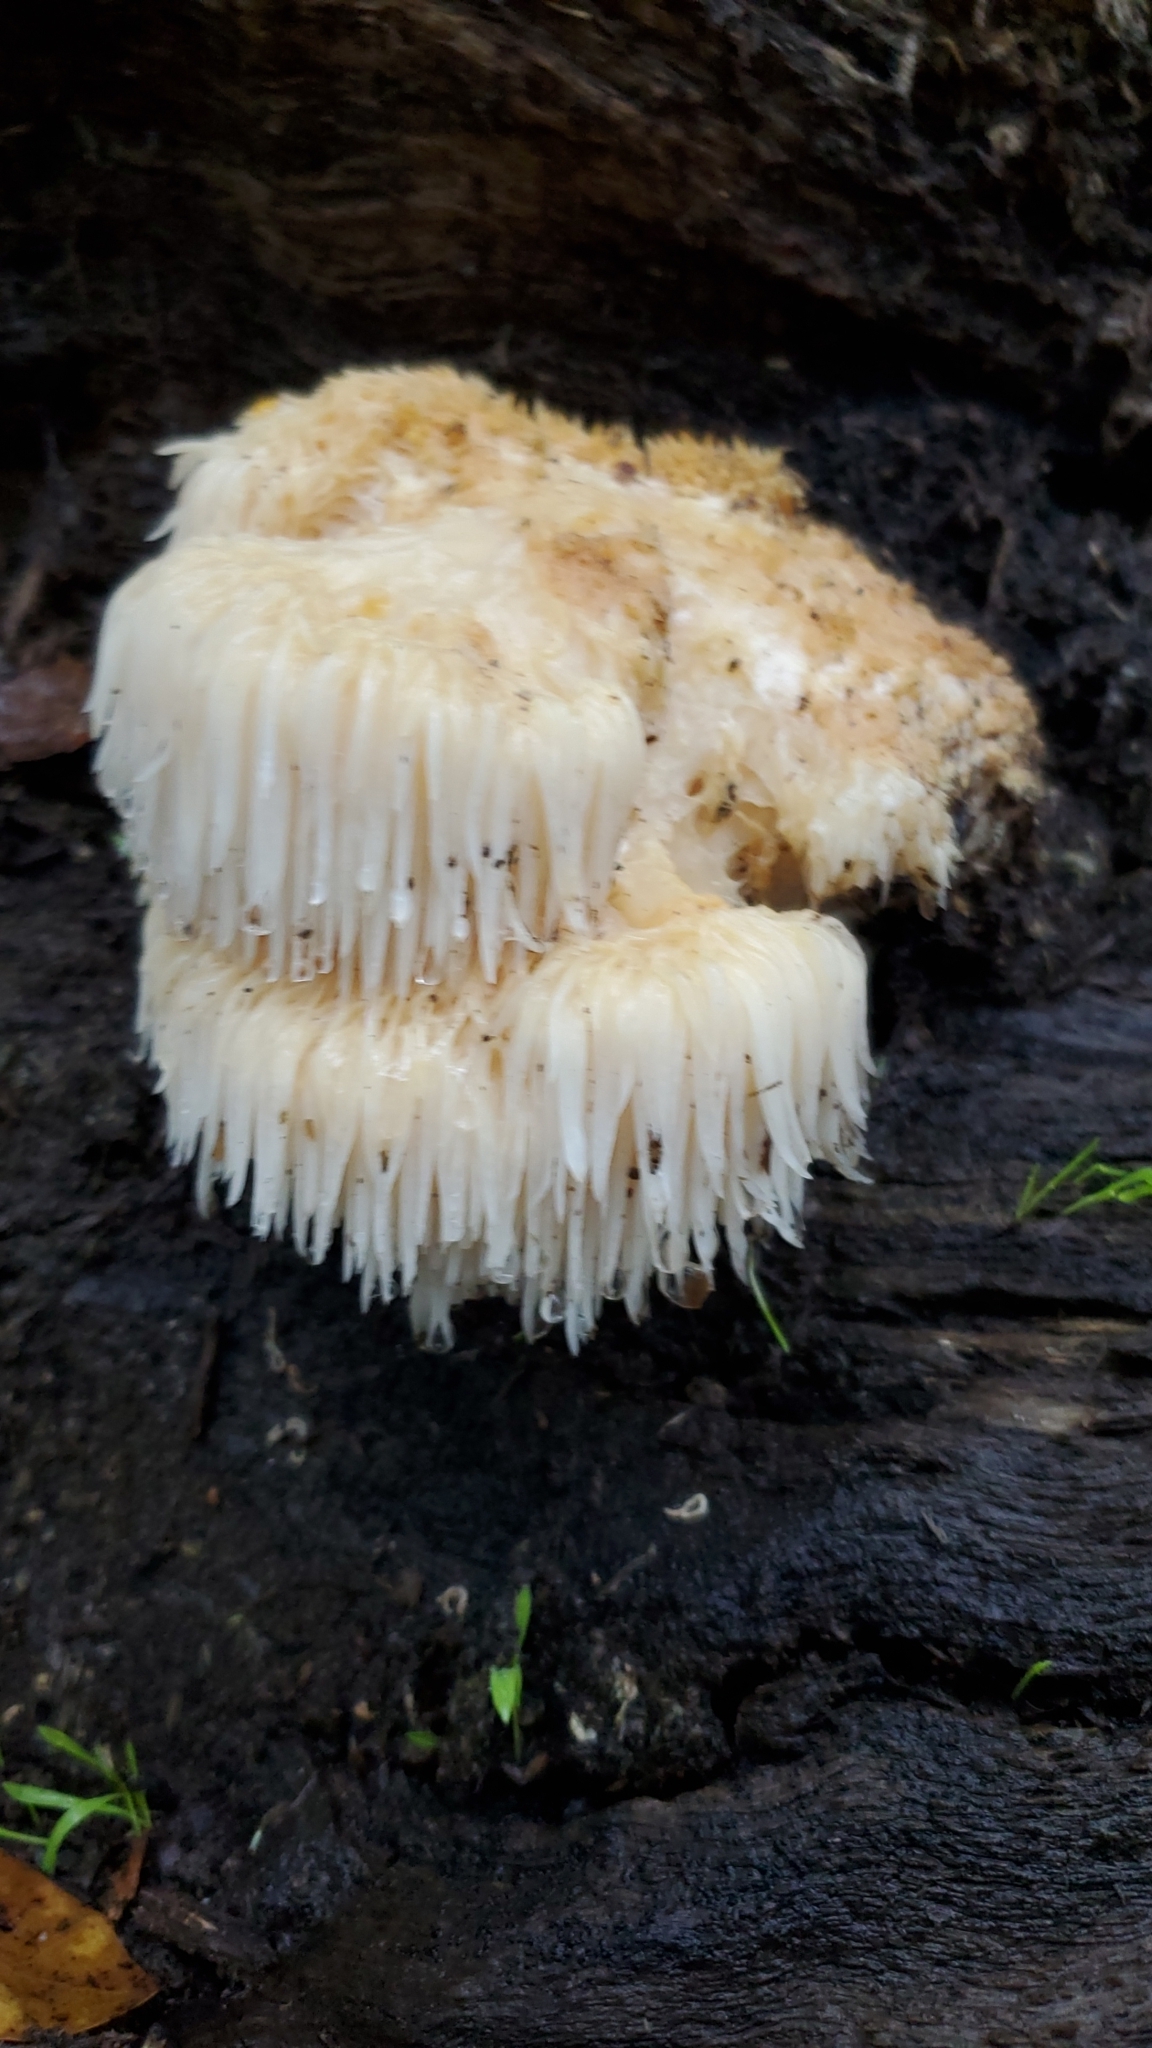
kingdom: Fungi
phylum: Basidiomycota
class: Agaricomycetes
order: Russulales
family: Hericiaceae
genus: Hericium
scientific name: Hericium erinaceus
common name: Bearded tooth
